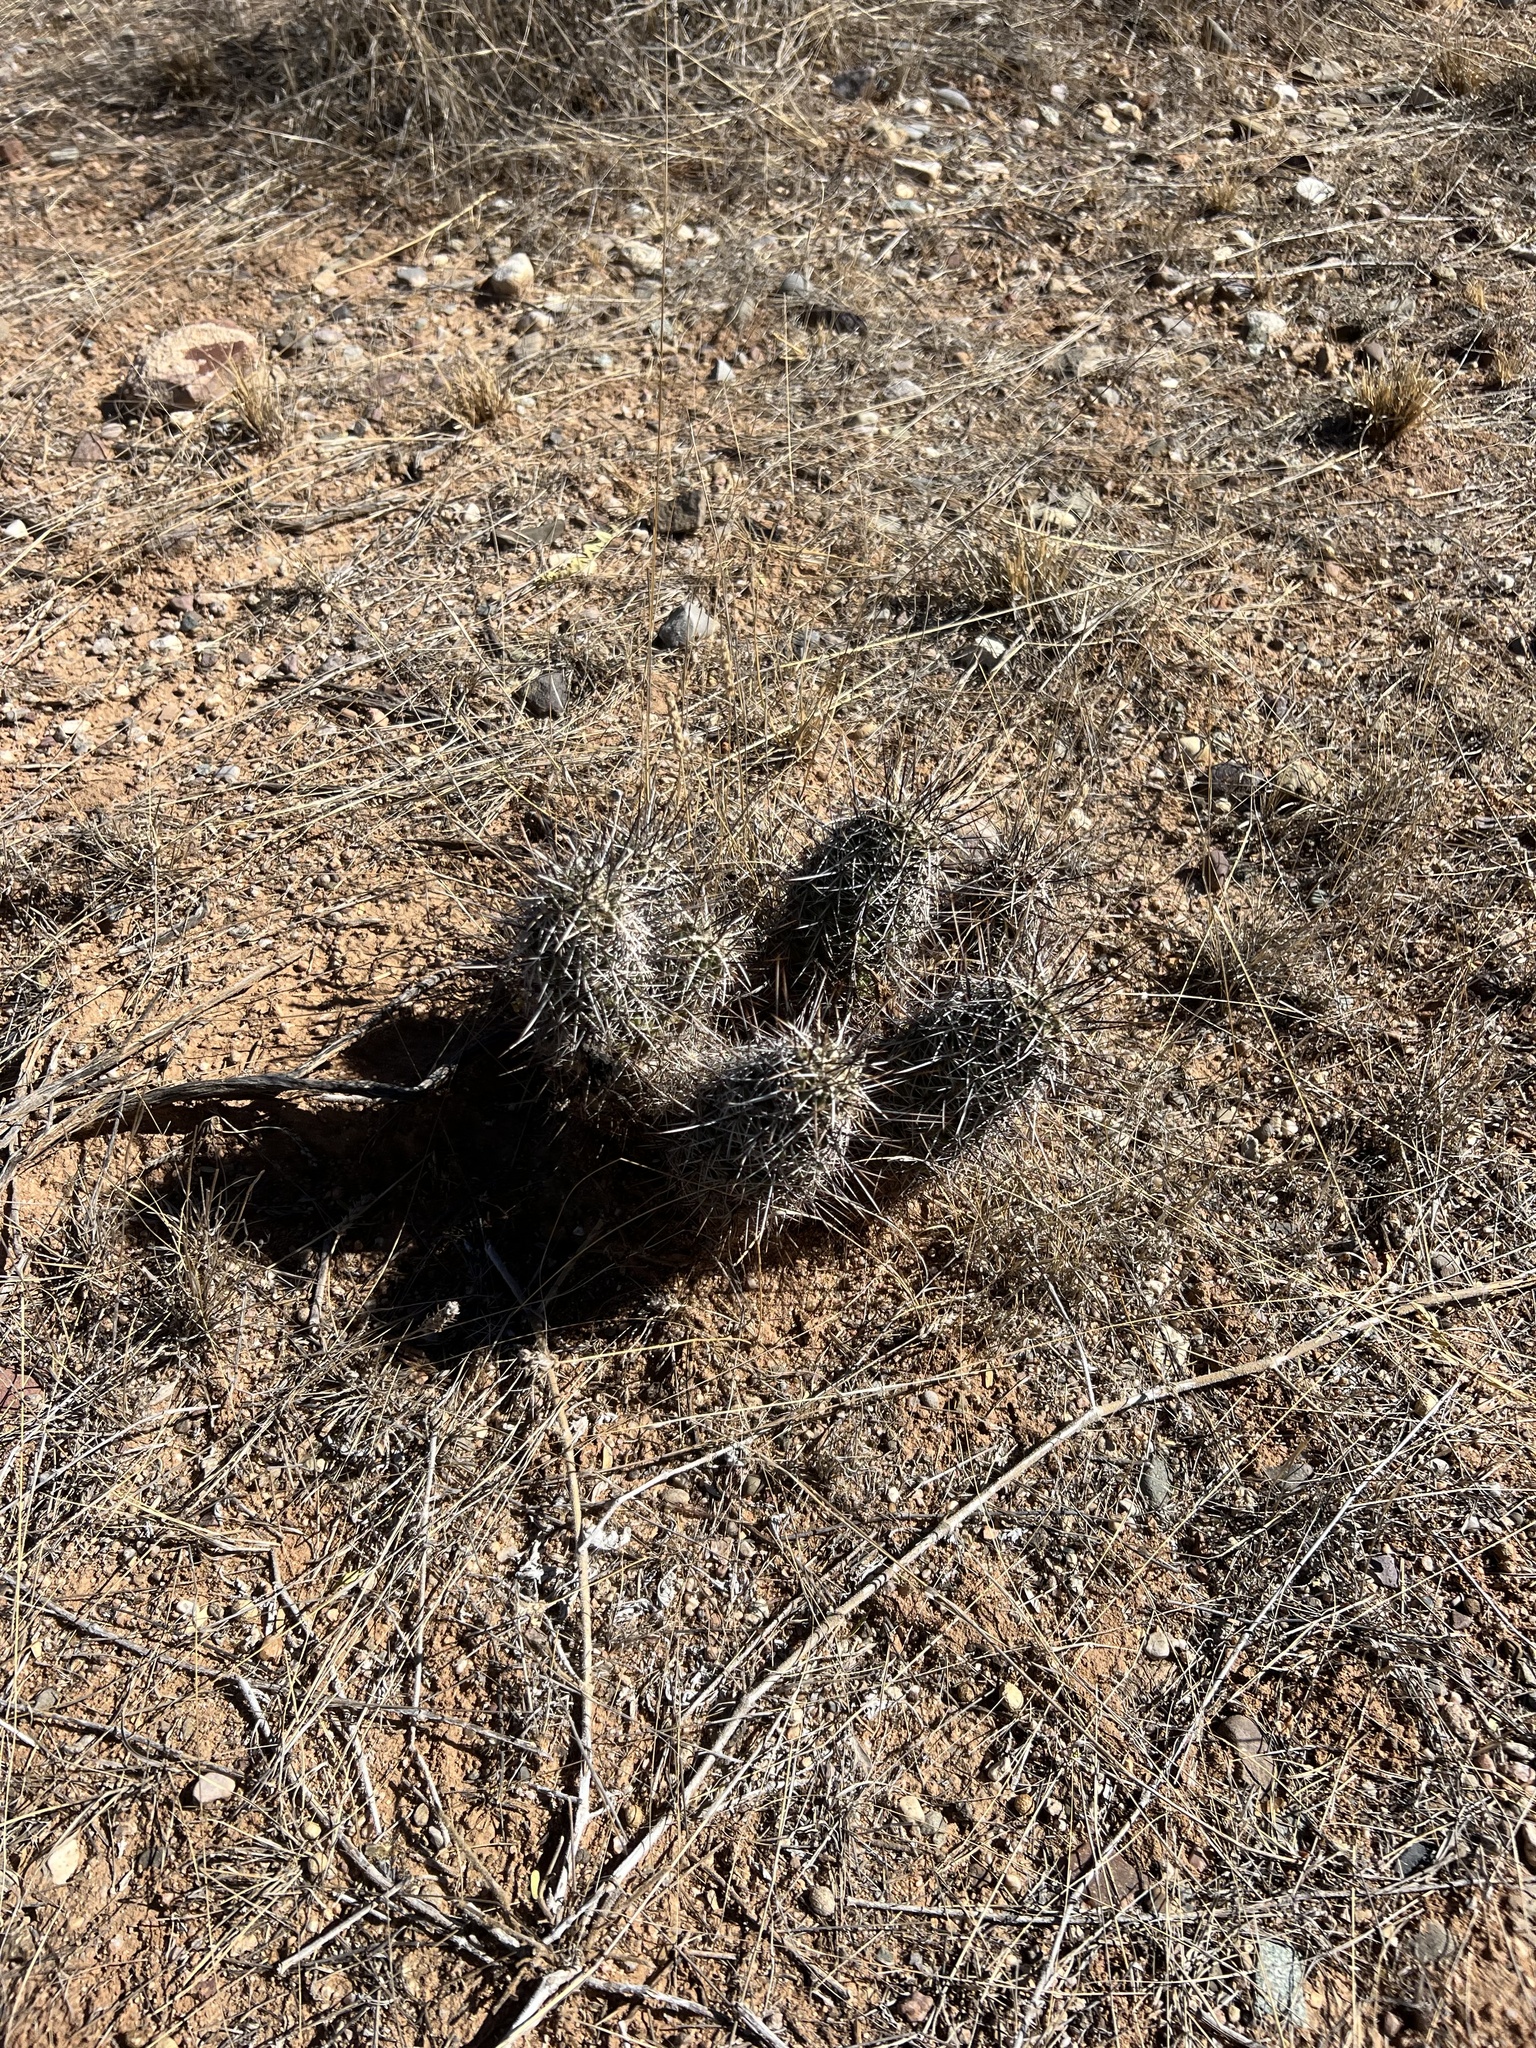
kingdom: Plantae
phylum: Tracheophyta
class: Magnoliopsida
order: Caryophyllales
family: Cactaceae
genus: Echinocereus
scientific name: Echinocereus fasciculatus
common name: Bundle hedgehog
